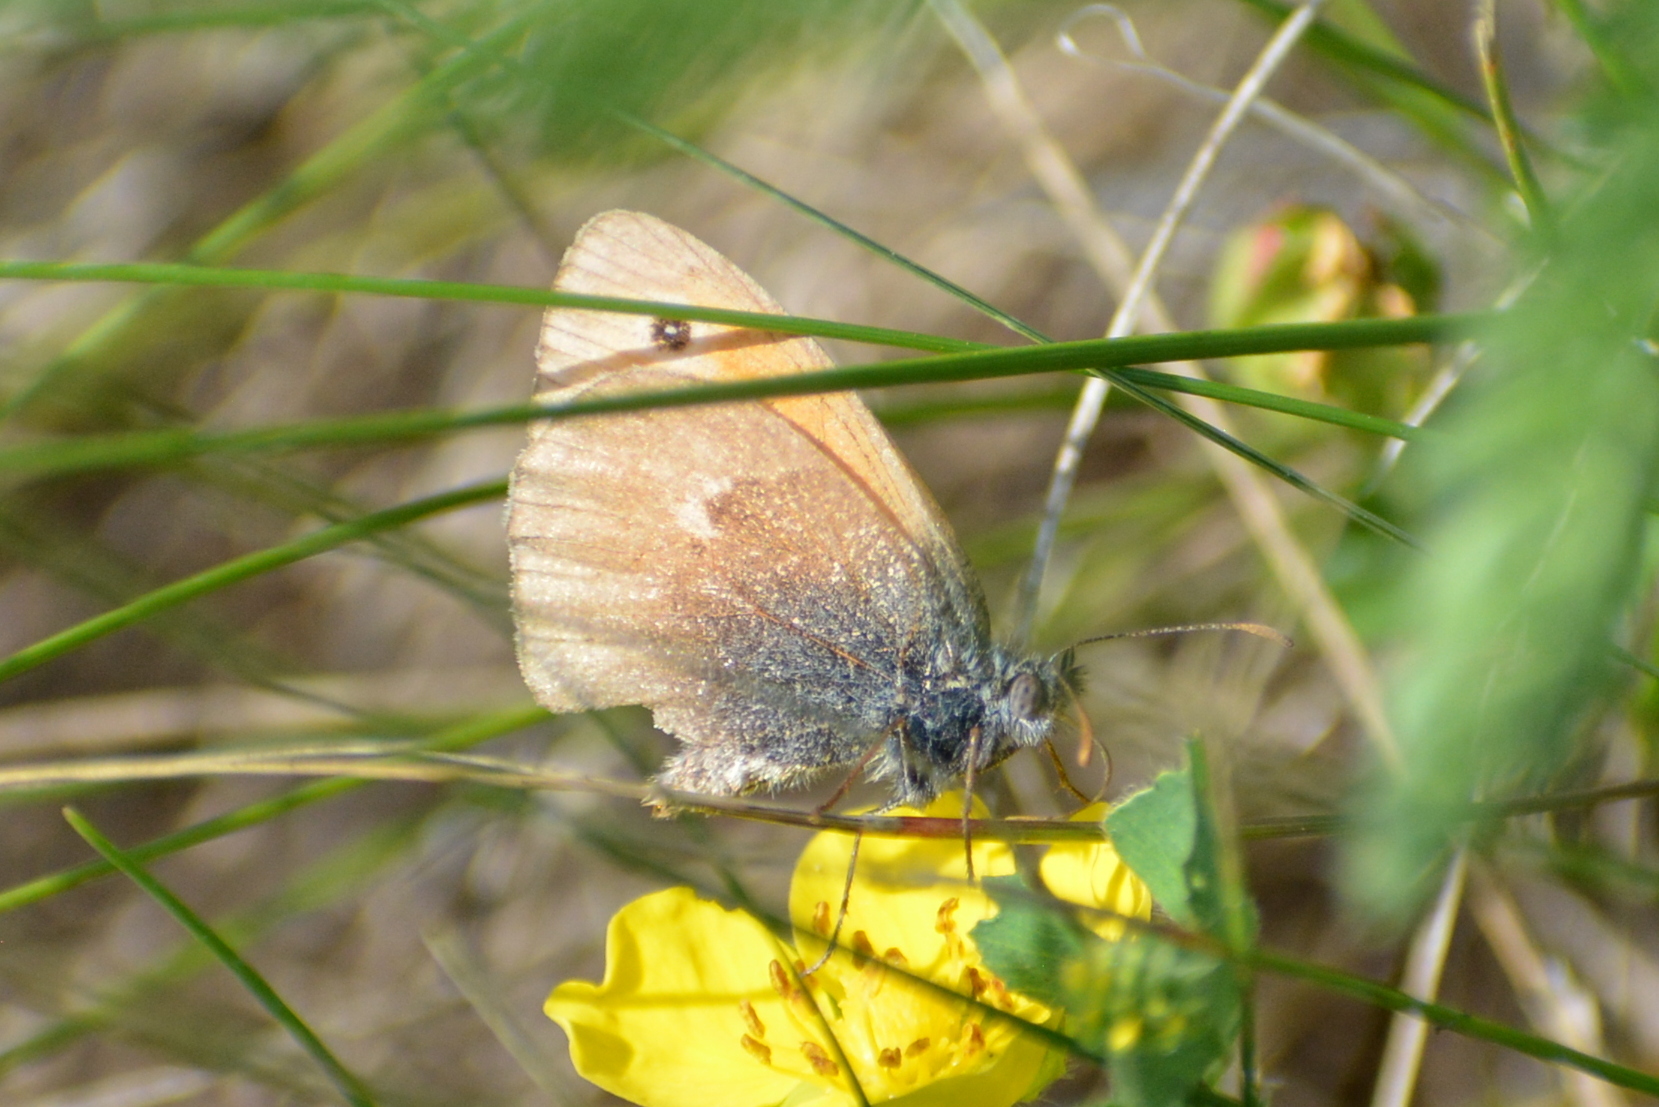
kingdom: Animalia
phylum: Arthropoda
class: Insecta
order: Lepidoptera
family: Nymphalidae
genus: Coenonympha
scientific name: Coenonympha pamphilus
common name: Small heath
